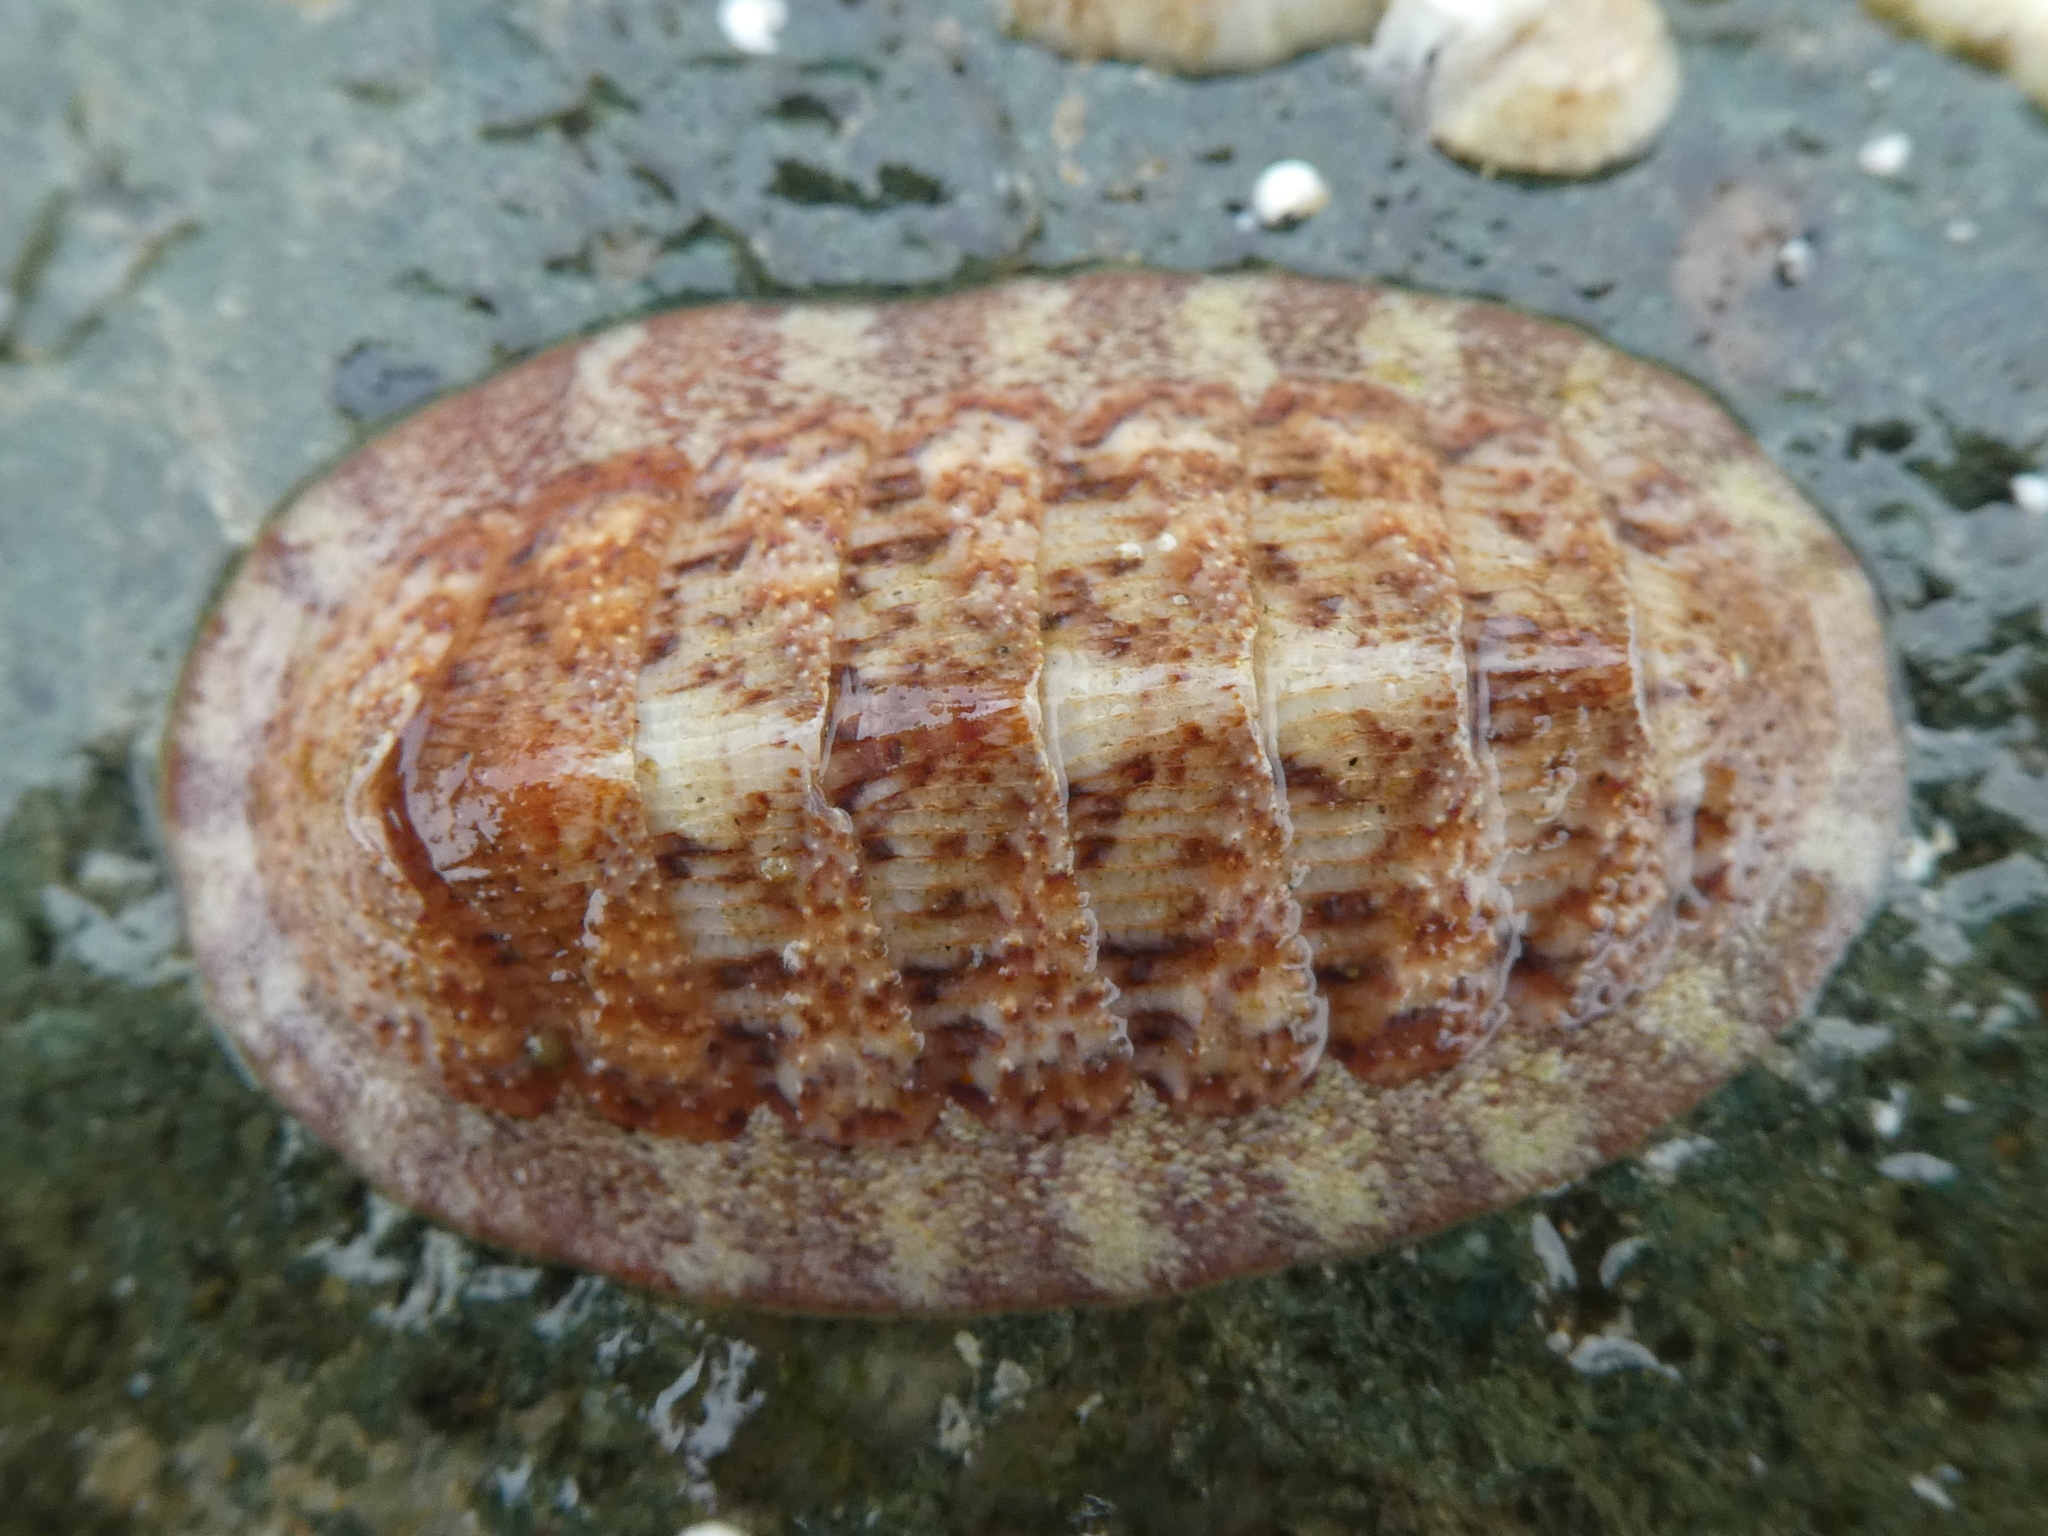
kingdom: Animalia
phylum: Mollusca
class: Polyplacophora
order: Chitonida
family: Ischnochitonidae
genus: Lepidozona
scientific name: Lepidozona mertensii
